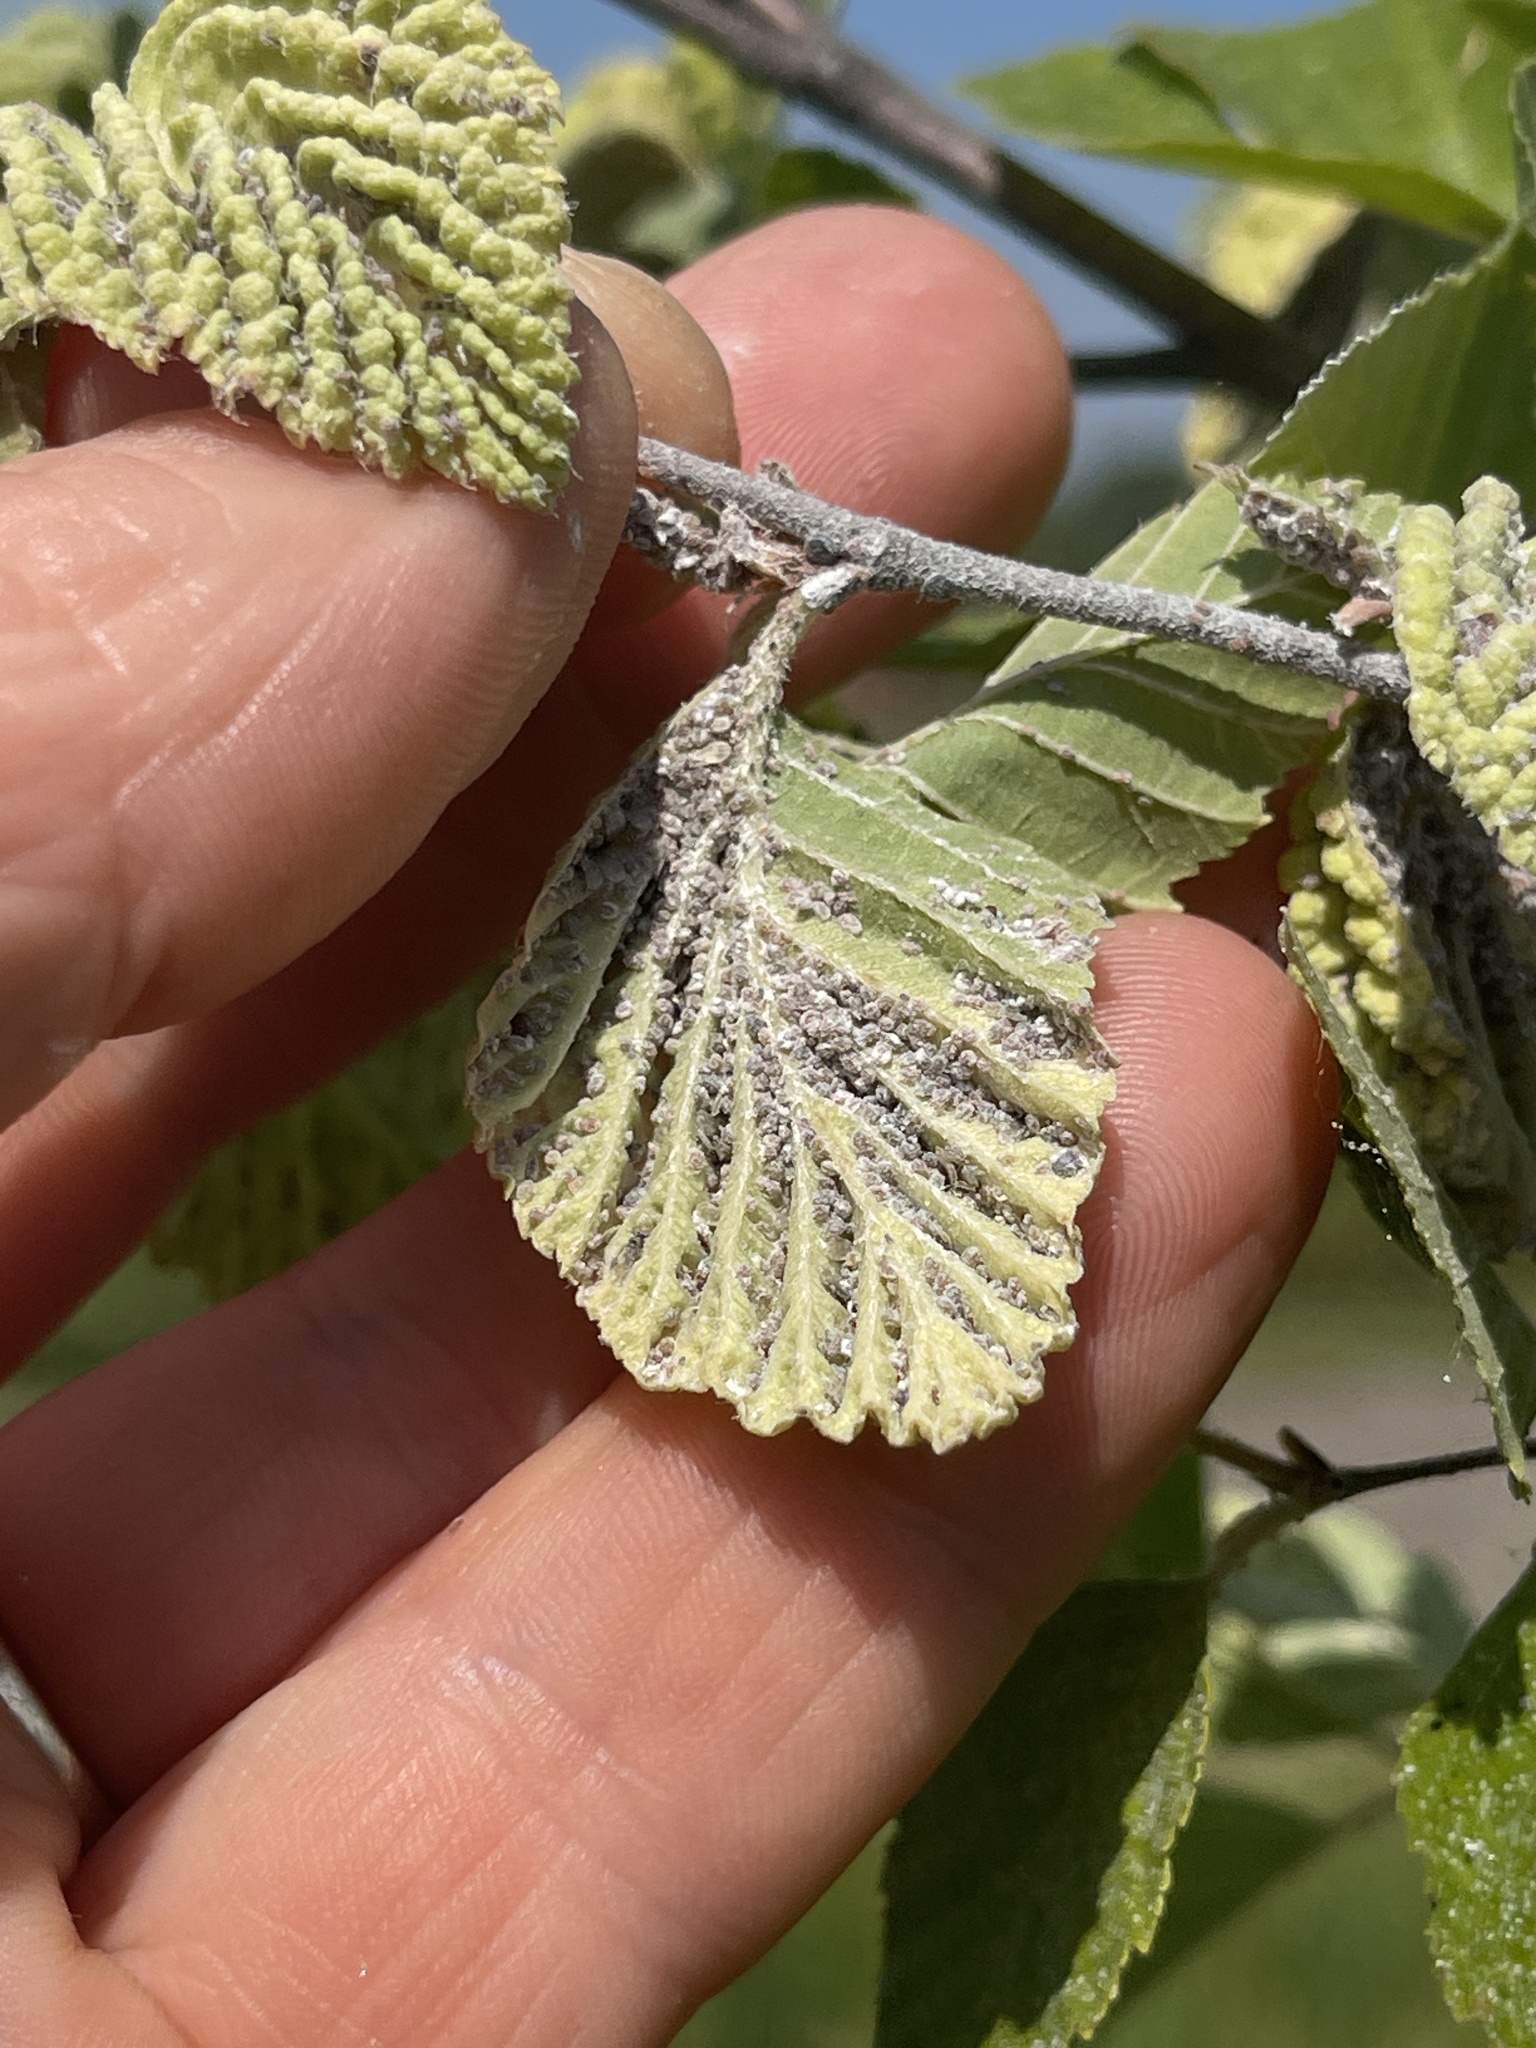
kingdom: Animalia
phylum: Arthropoda
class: Insecta
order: Hemiptera
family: Aphididae
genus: Hamamelistes
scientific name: Hamamelistes spinosus
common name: Witch hazel gall aphid
